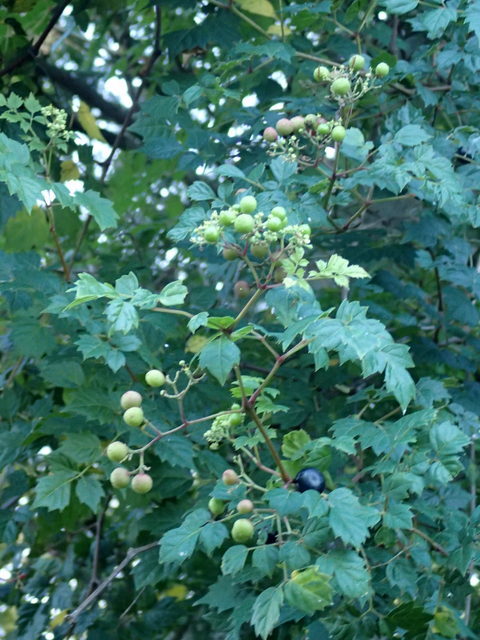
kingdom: Plantae
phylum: Tracheophyta
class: Magnoliopsida
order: Vitales
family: Vitaceae
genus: Nekemias
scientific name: Nekemias arborea
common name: Peppervine
